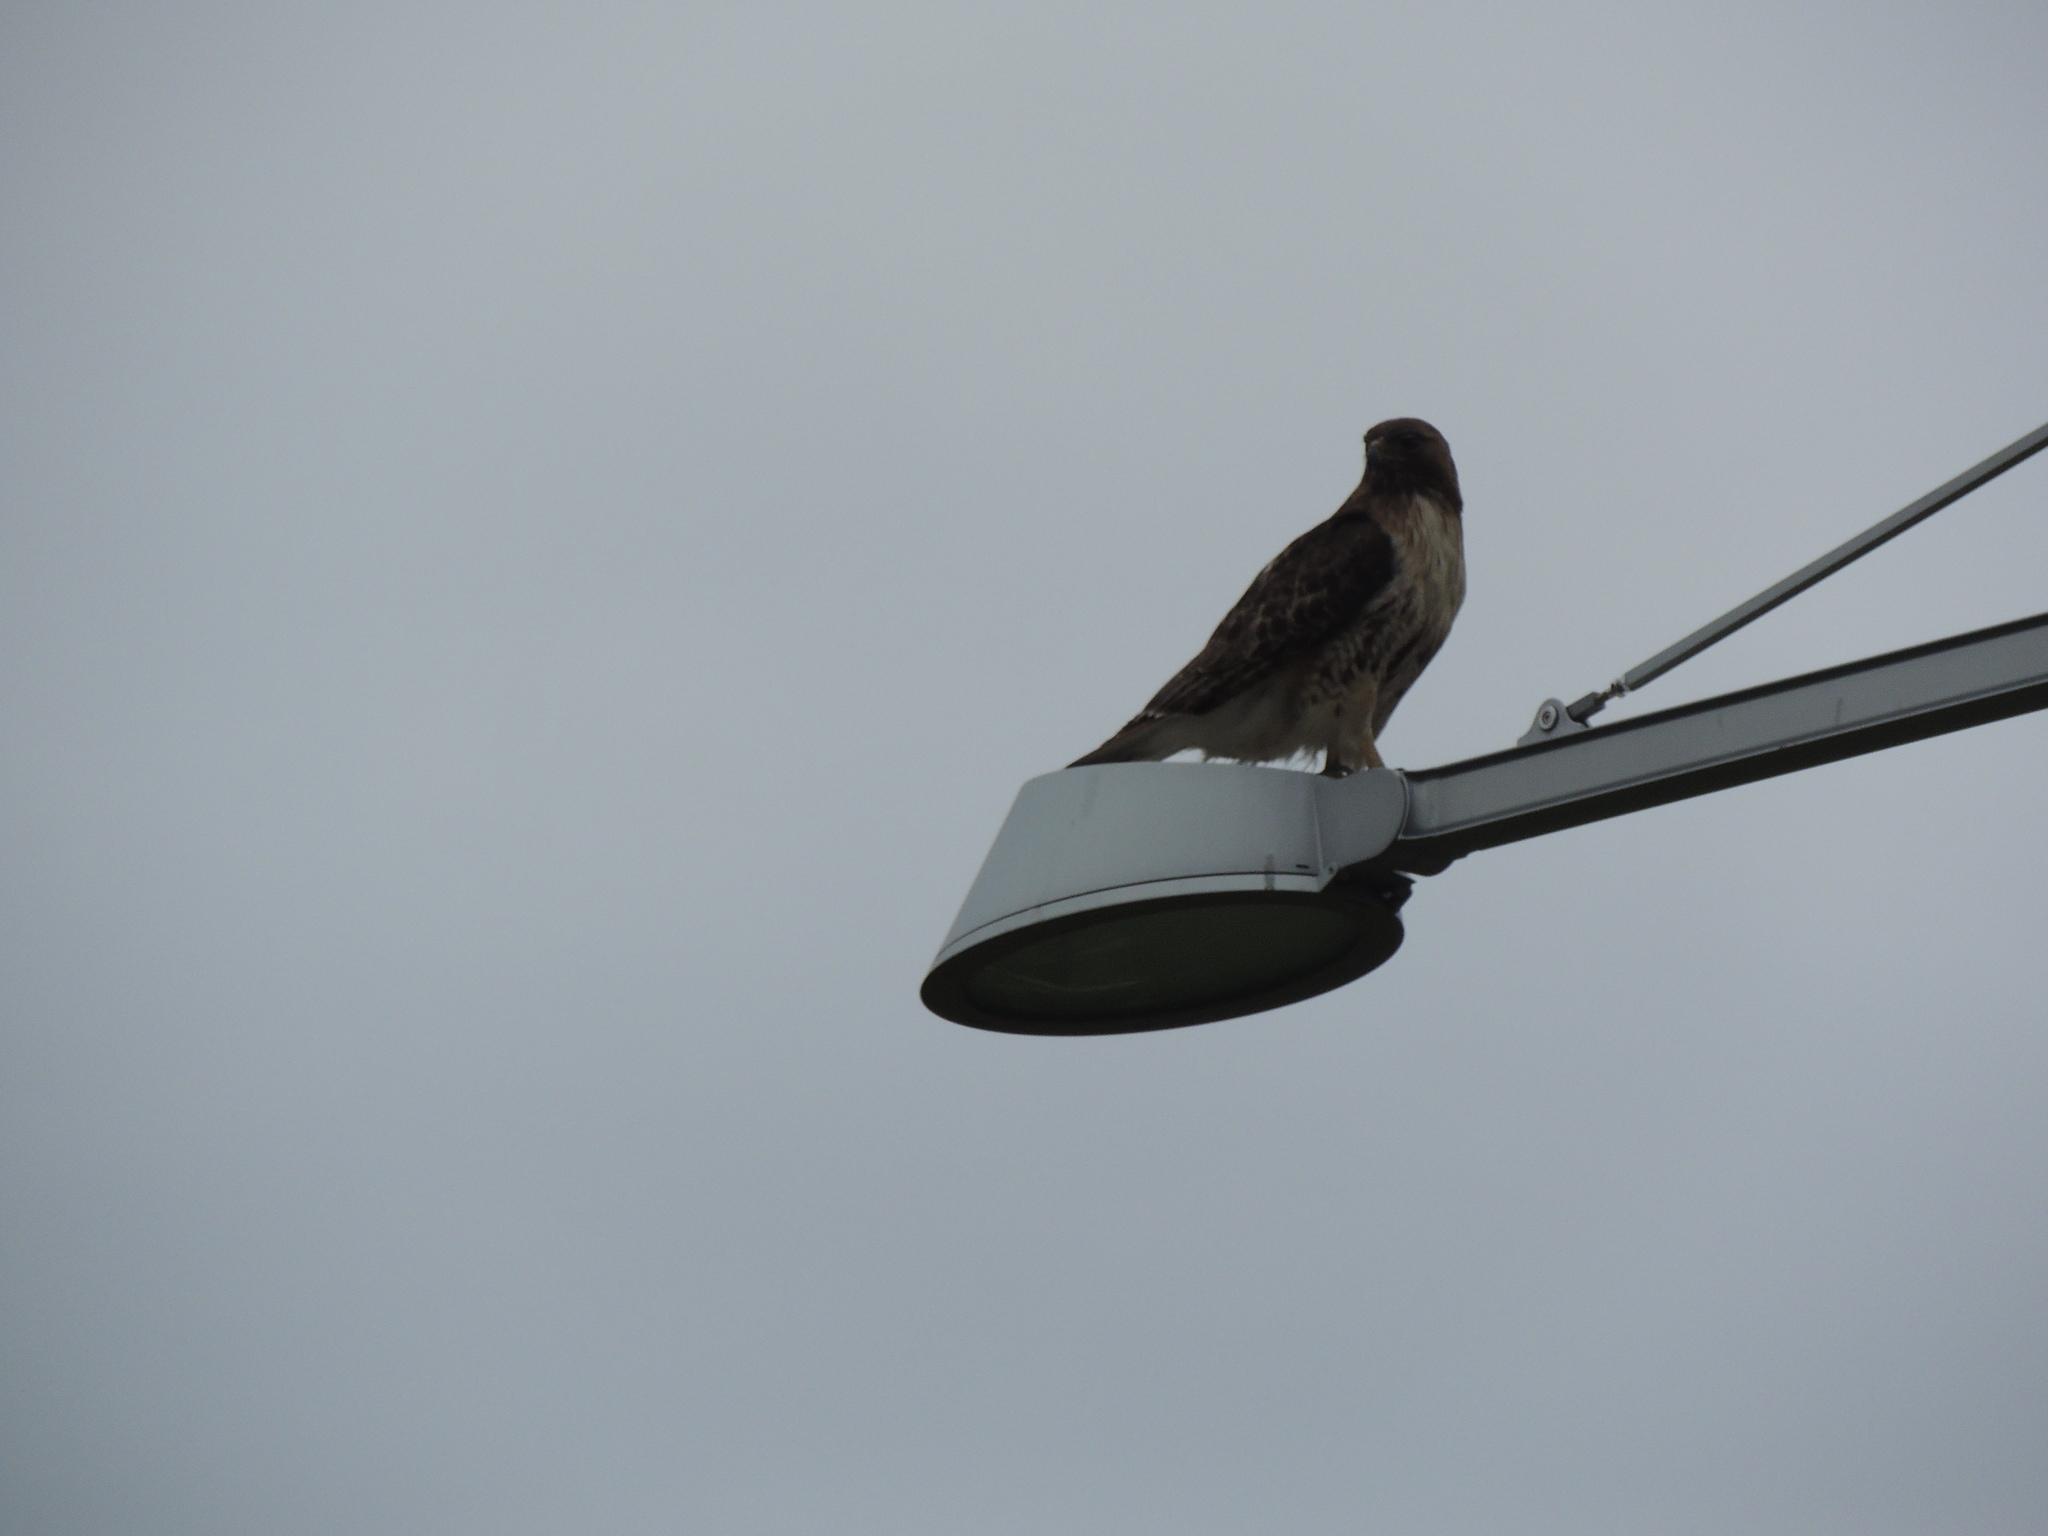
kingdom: Animalia
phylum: Chordata
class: Aves
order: Accipitriformes
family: Accipitridae
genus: Buteo
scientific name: Buteo jamaicensis
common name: Red-tailed hawk
